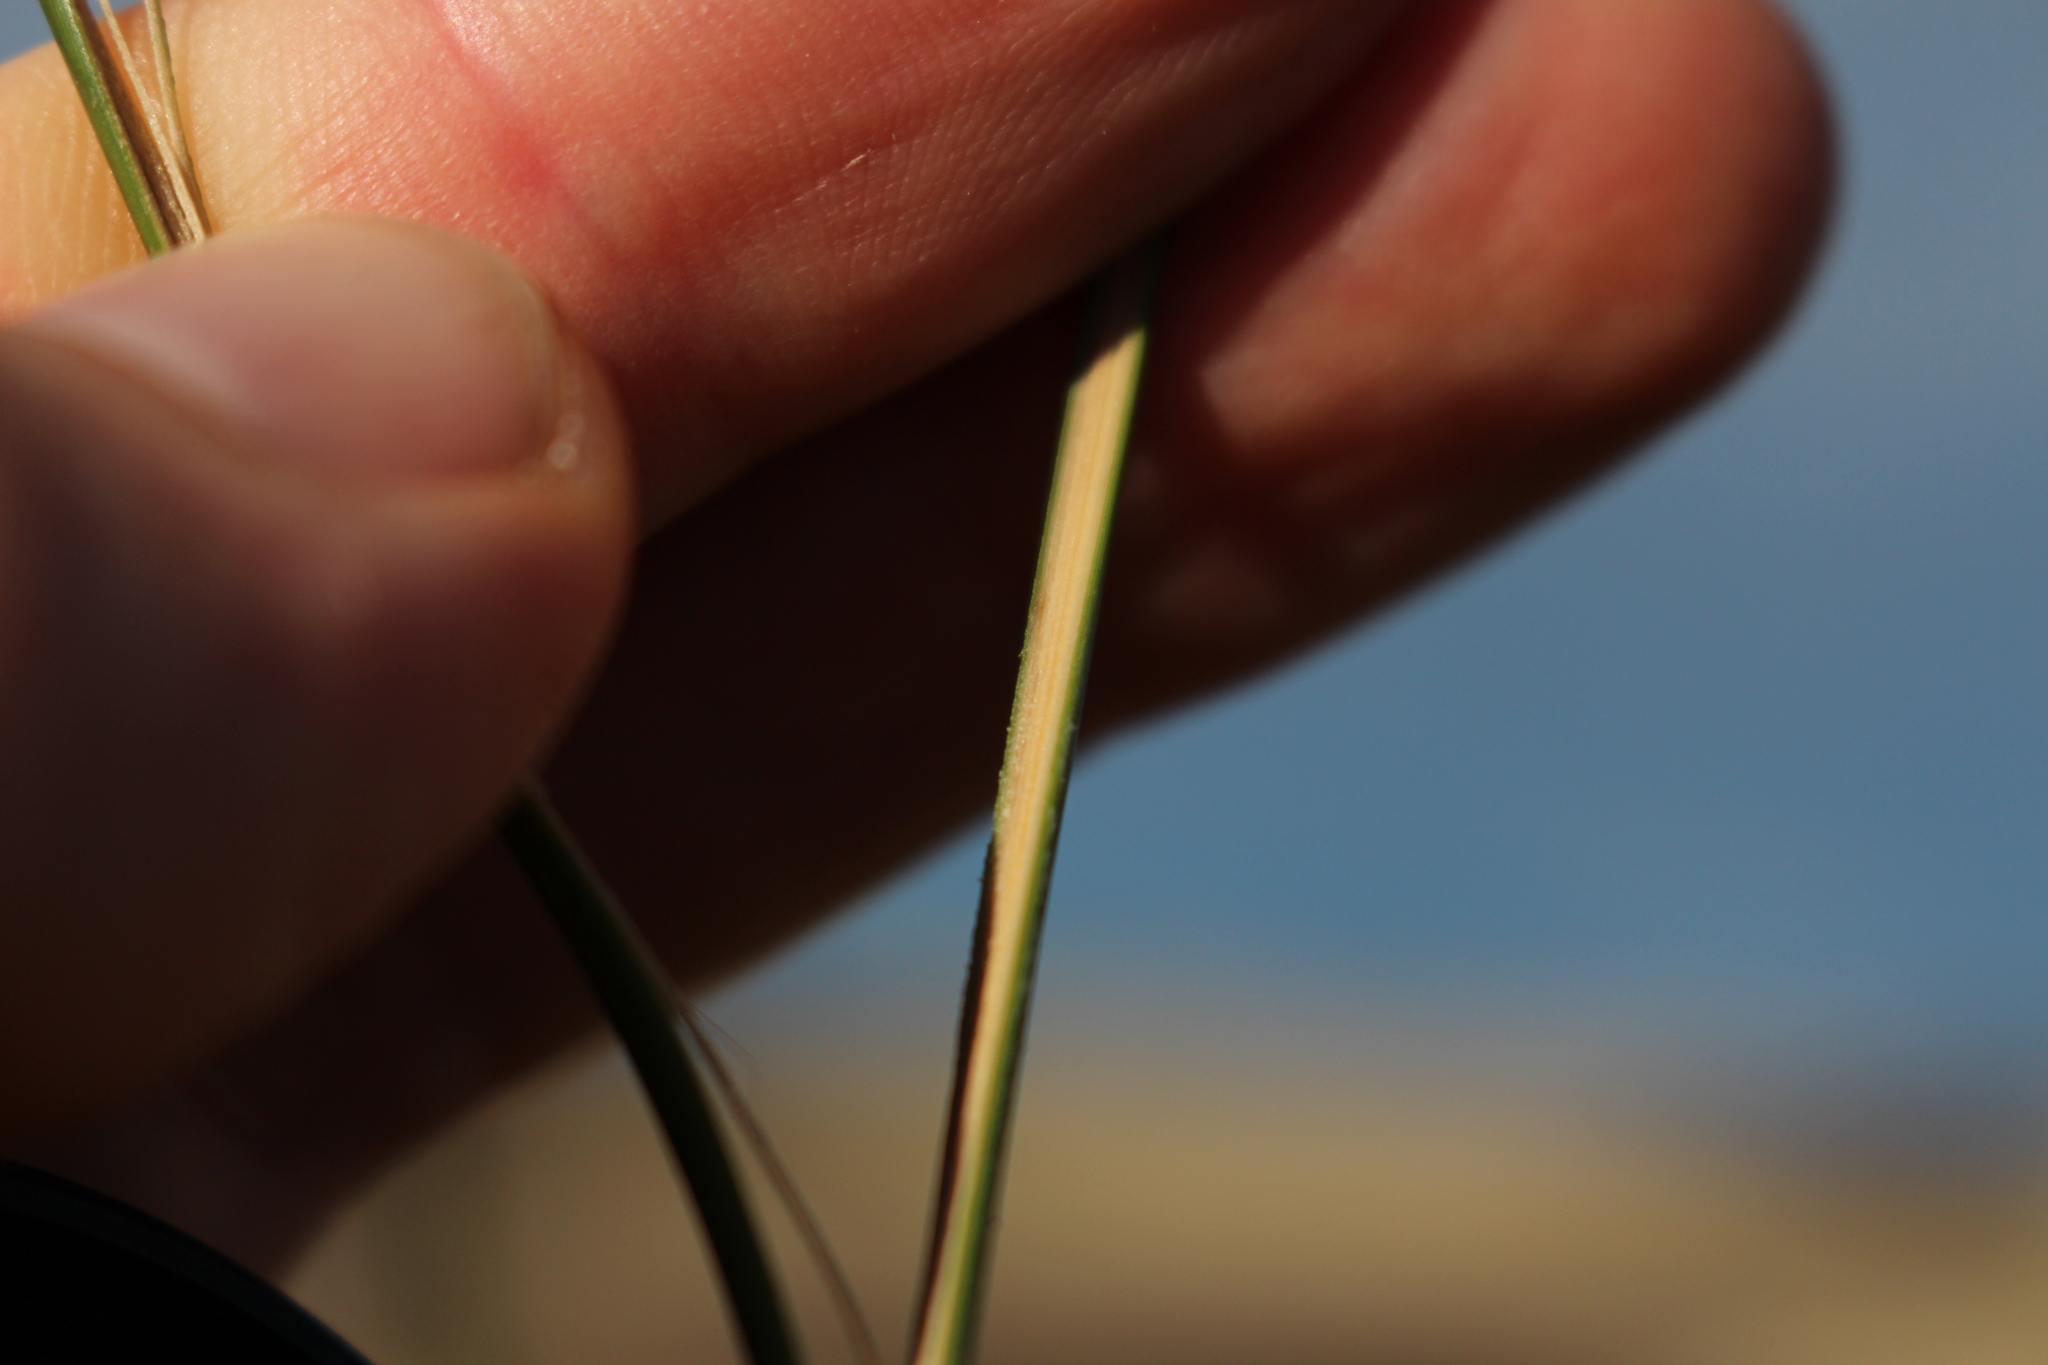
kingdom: Plantae
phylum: Tracheophyta
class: Liliopsida
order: Poales
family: Juncaceae
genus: Juncus
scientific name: Juncus kraussii
